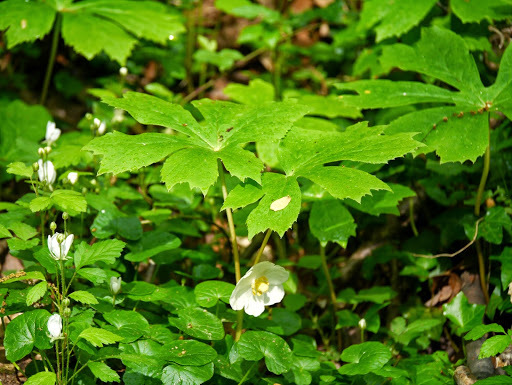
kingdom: Plantae
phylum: Tracheophyta
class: Magnoliopsida
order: Ranunculales
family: Berberidaceae
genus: Podophyllum
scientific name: Podophyllum peltatum
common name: Wild mandrake
